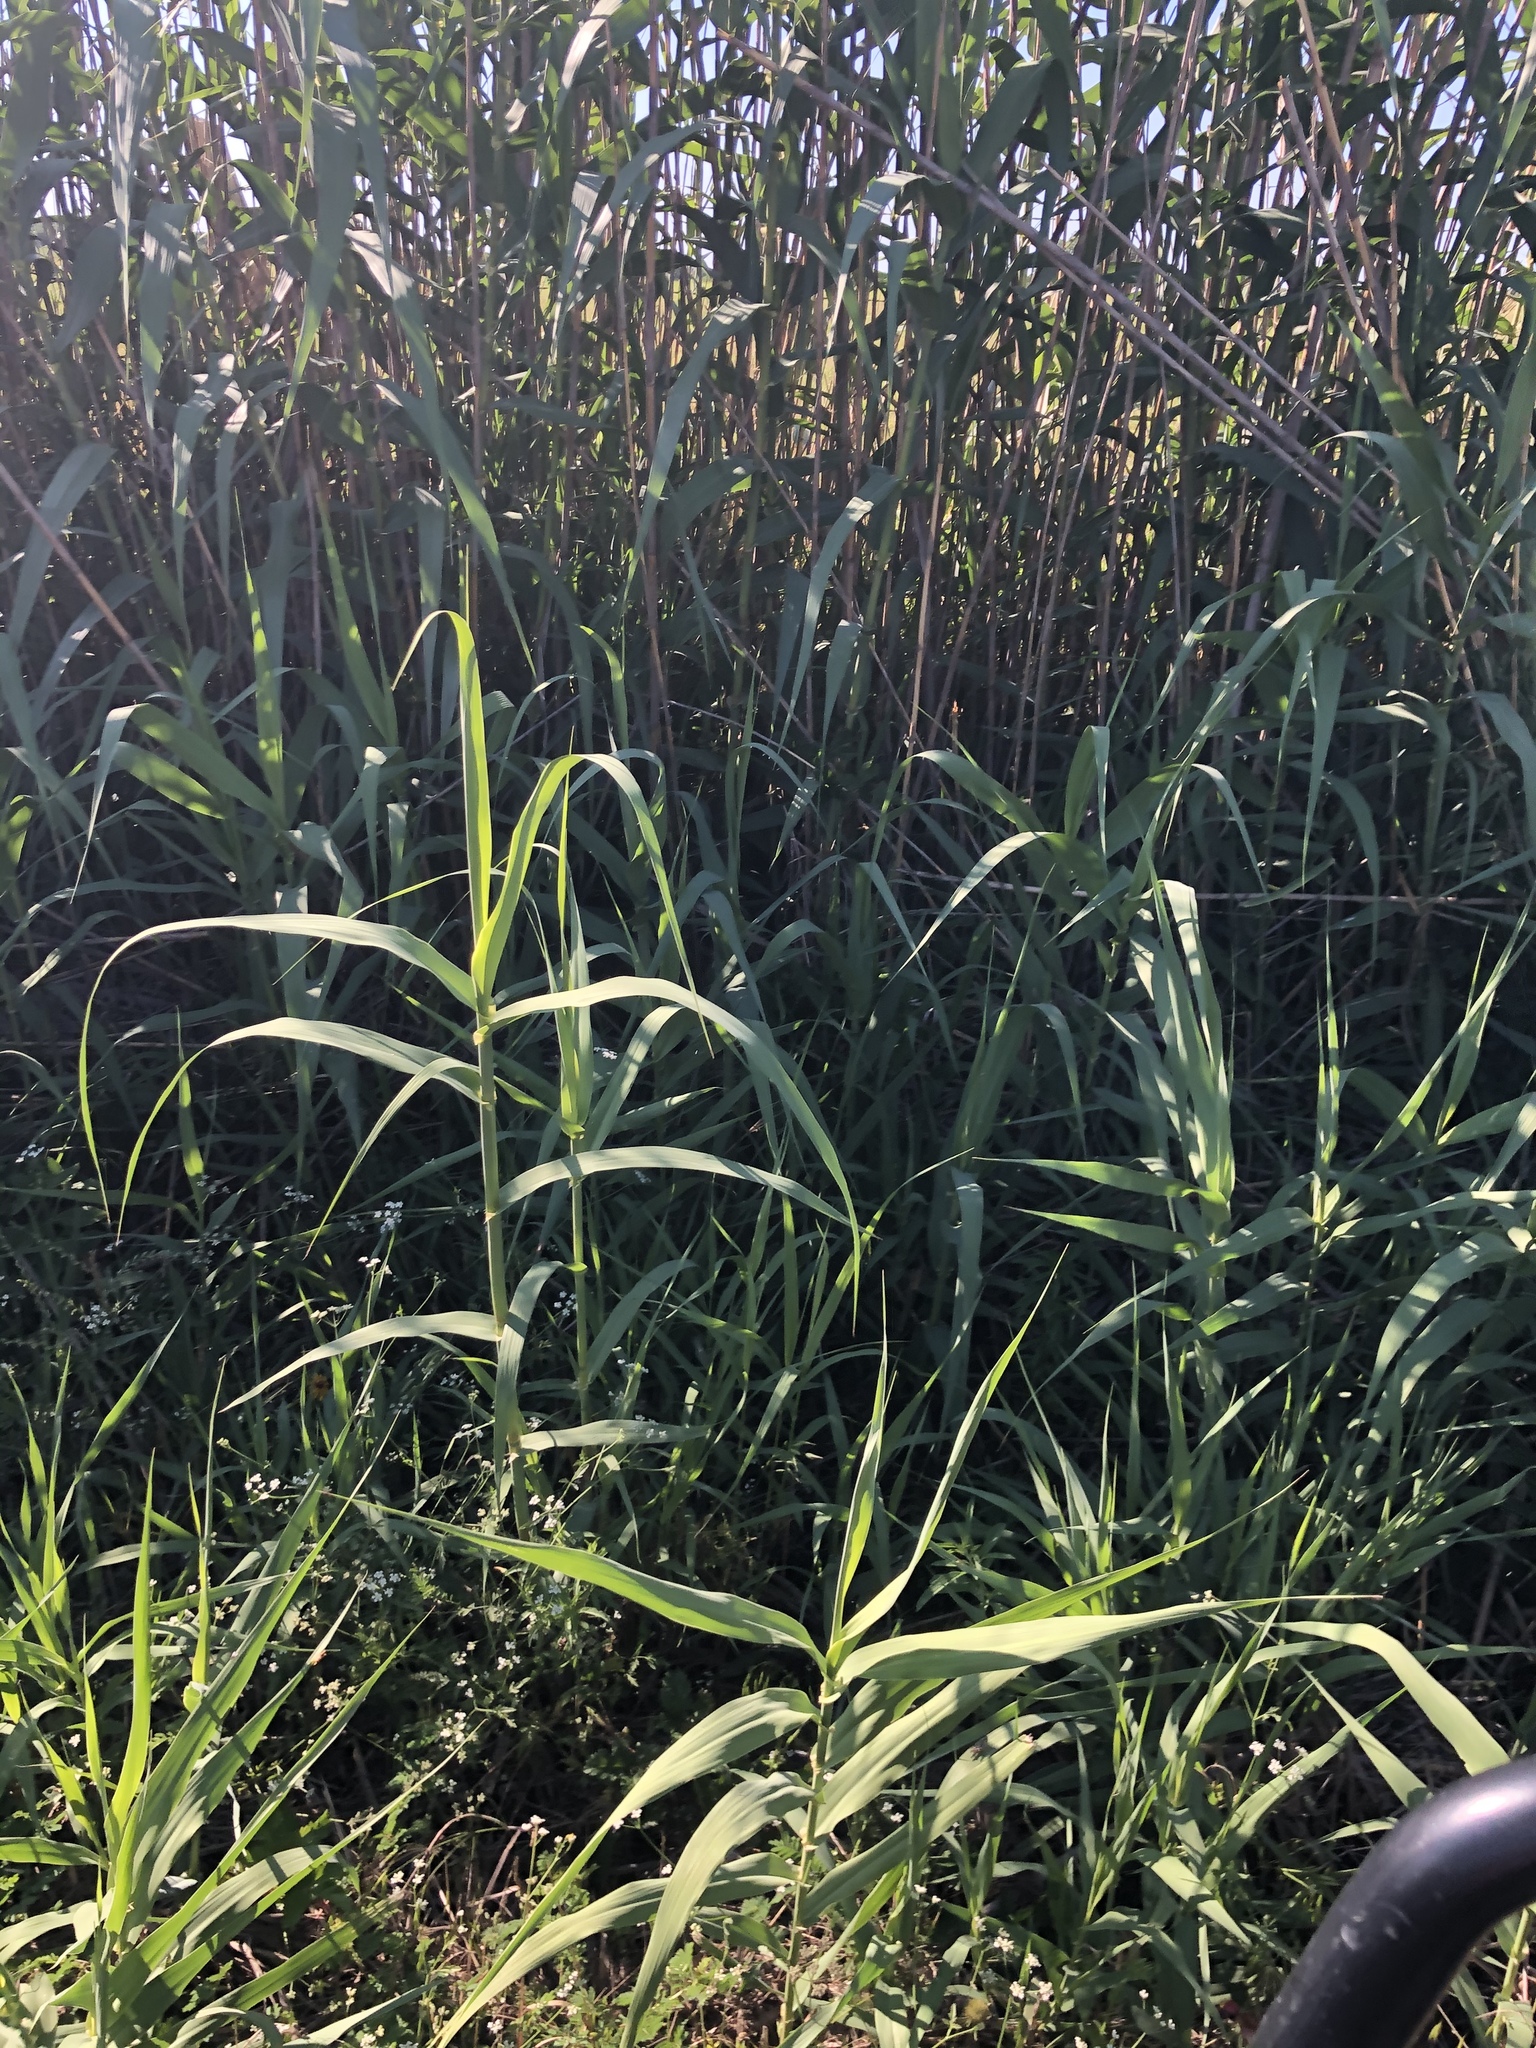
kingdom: Plantae
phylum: Tracheophyta
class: Liliopsida
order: Poales
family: Poaceae
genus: Arundo
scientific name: Arundo donax
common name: Giant reed
